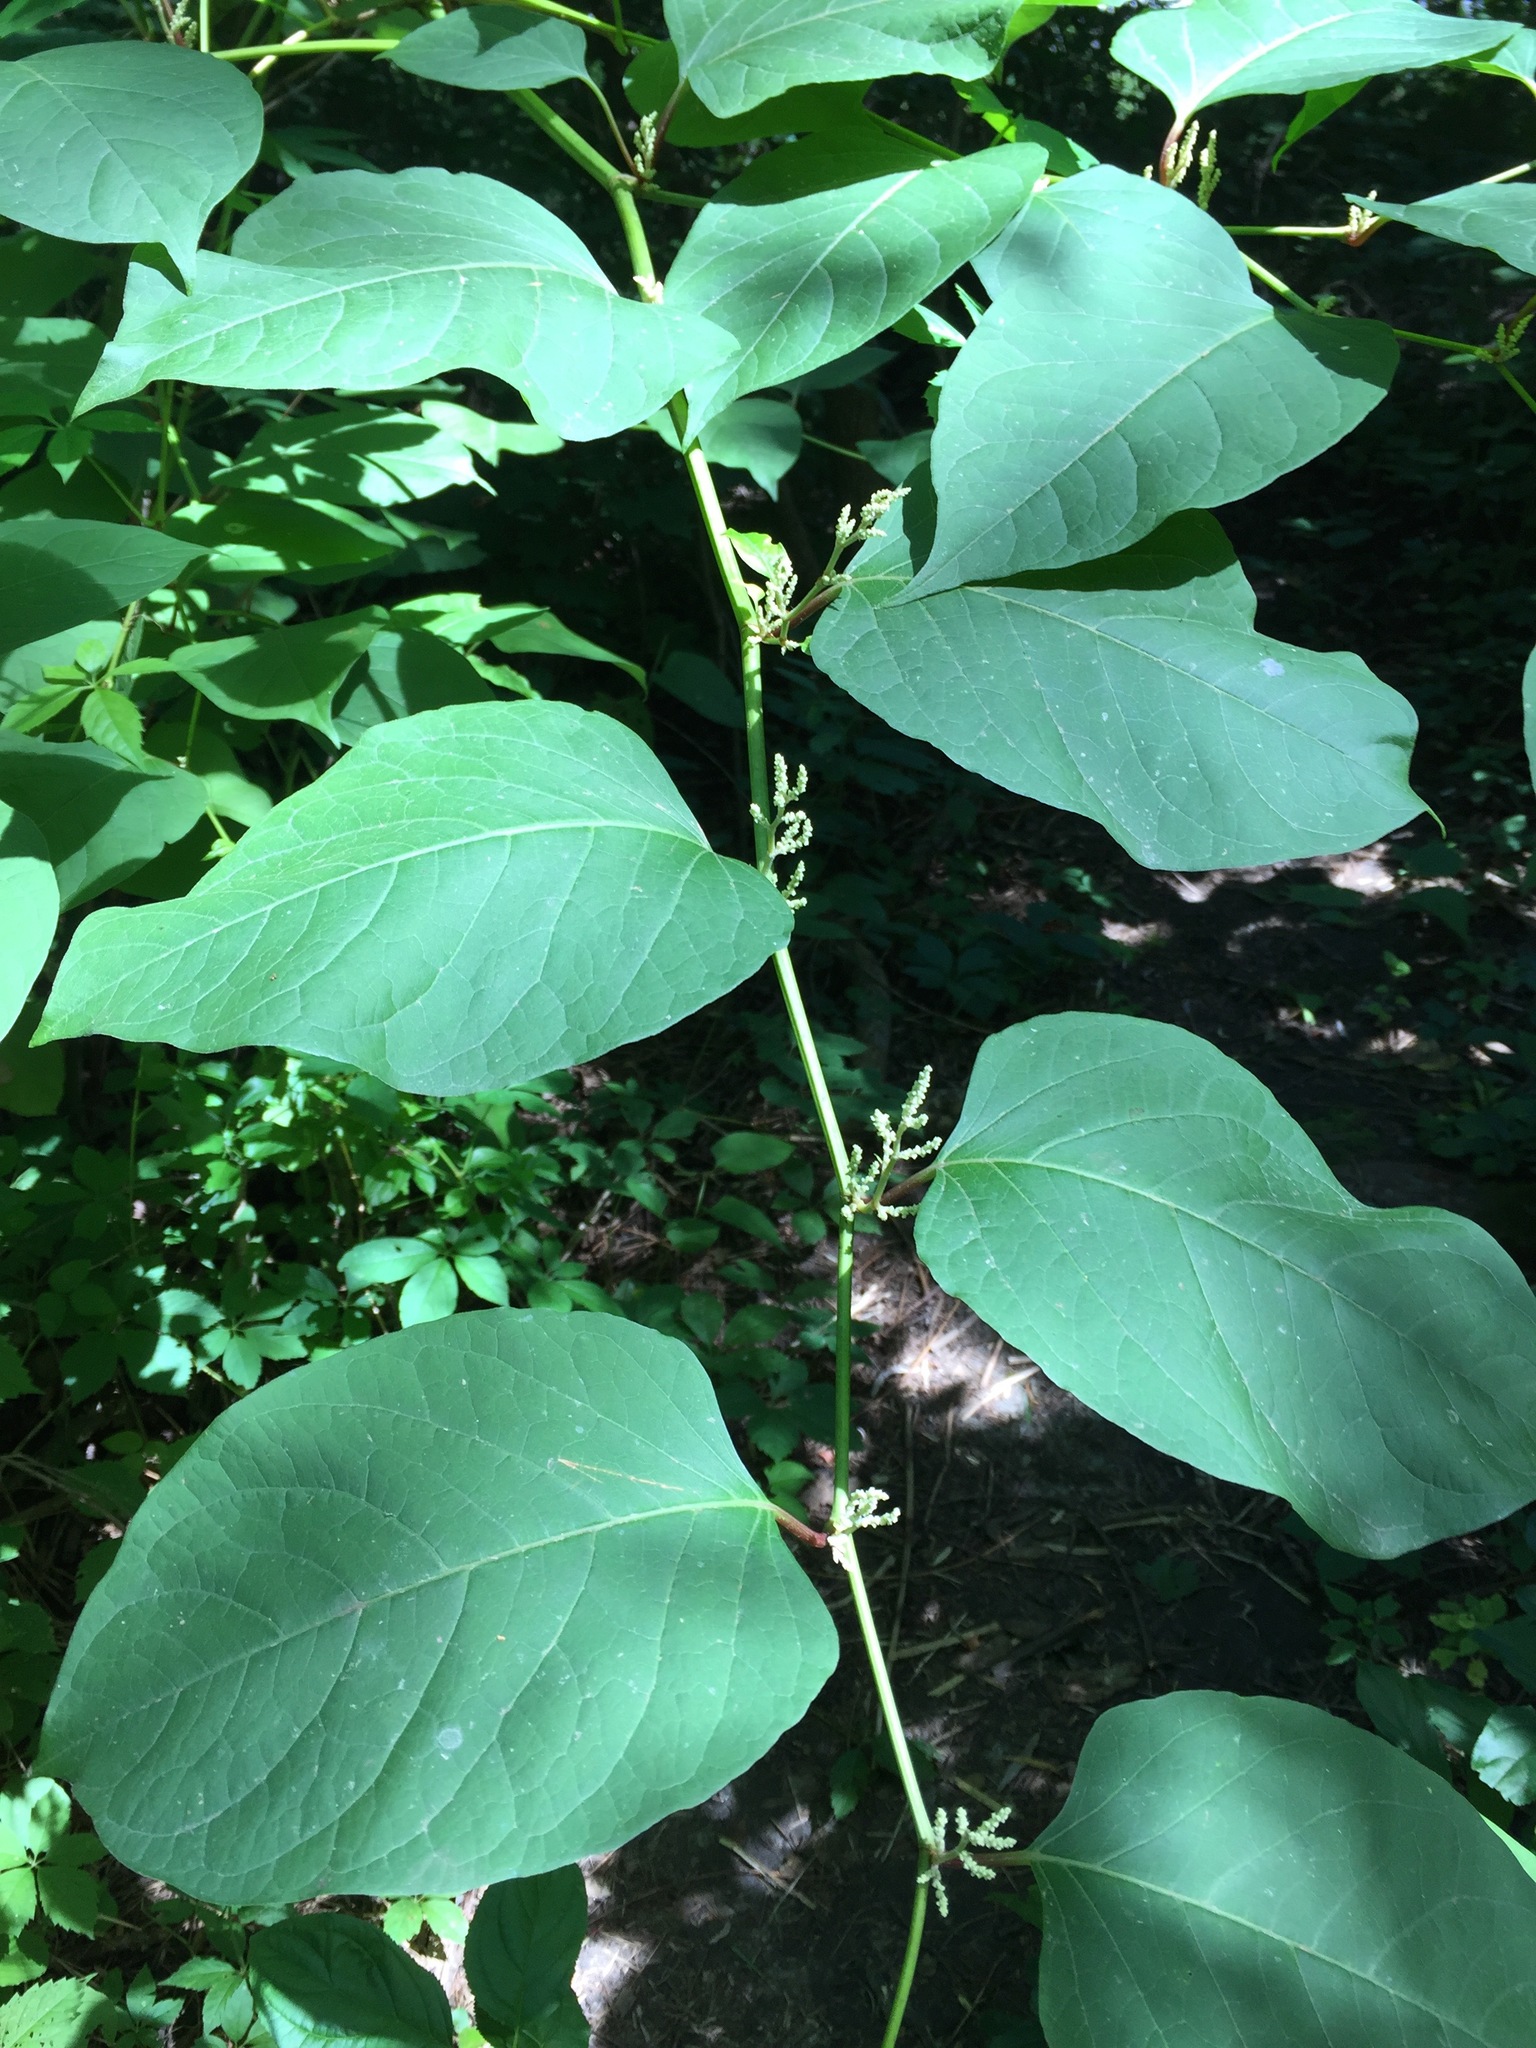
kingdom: Plantae
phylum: Tracheophyta
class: Magnoliopsida
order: Caryophyllales
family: Polygonaceae
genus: Reynoutria
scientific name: Reynoutria japonica
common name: Japanese knotweed
